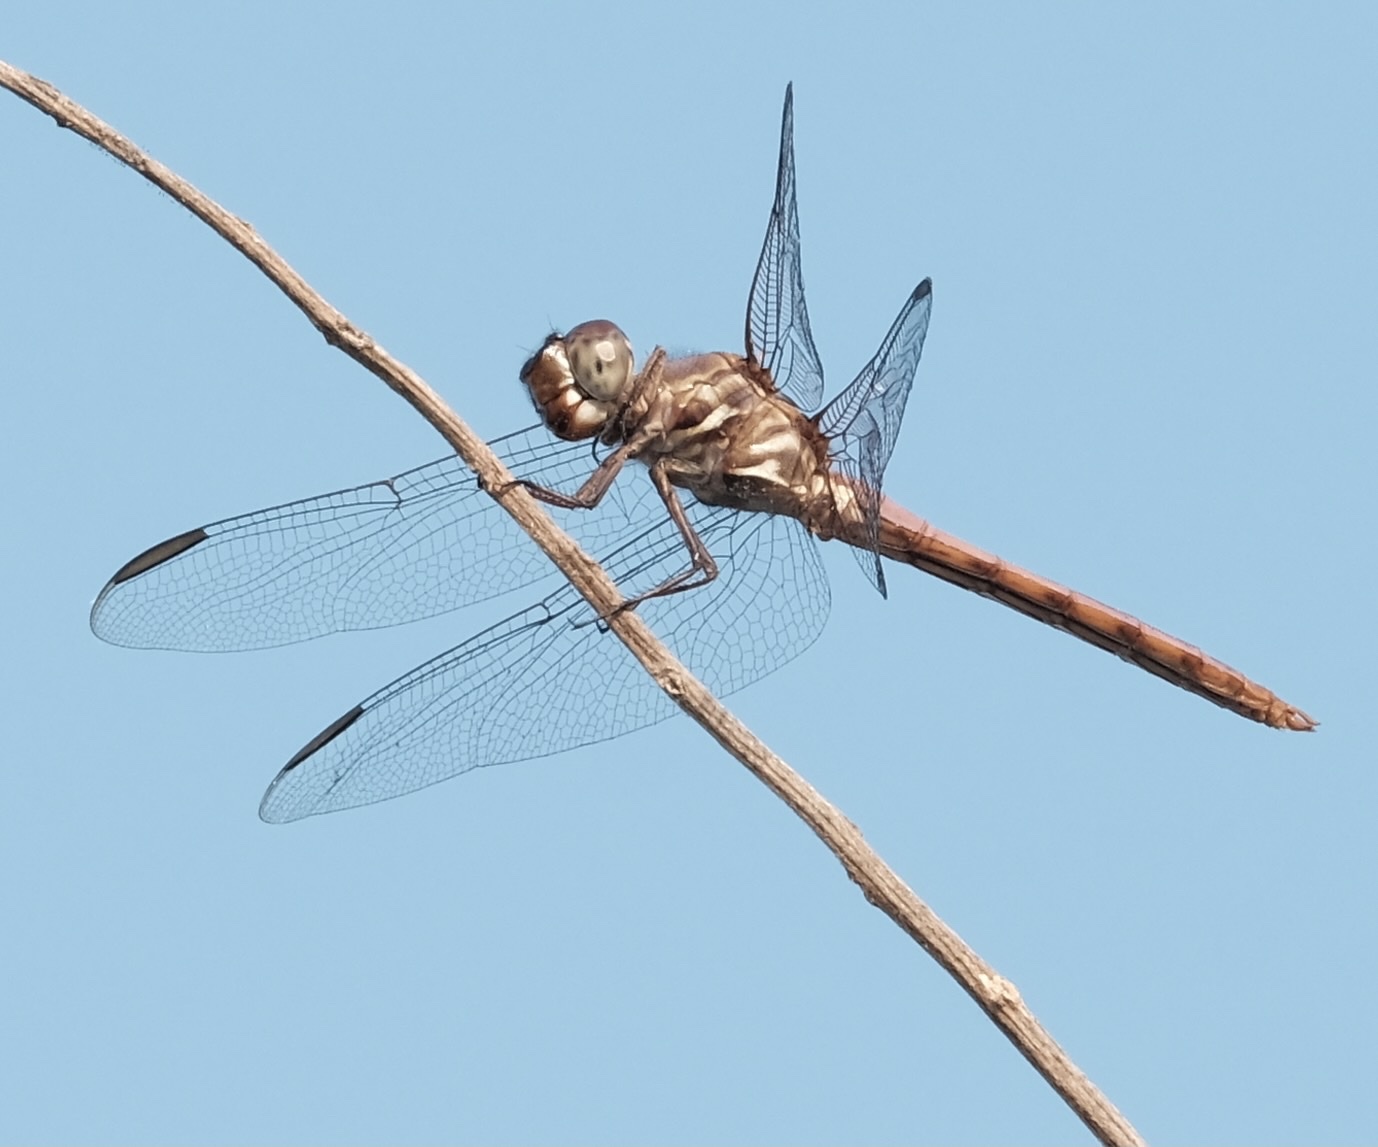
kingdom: Animalia
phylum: Arthropoda
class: Insecta
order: Odonata
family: Libellulidae
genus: Orthemis
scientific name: Orthemis ferruginea
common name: Roseate skimmer
